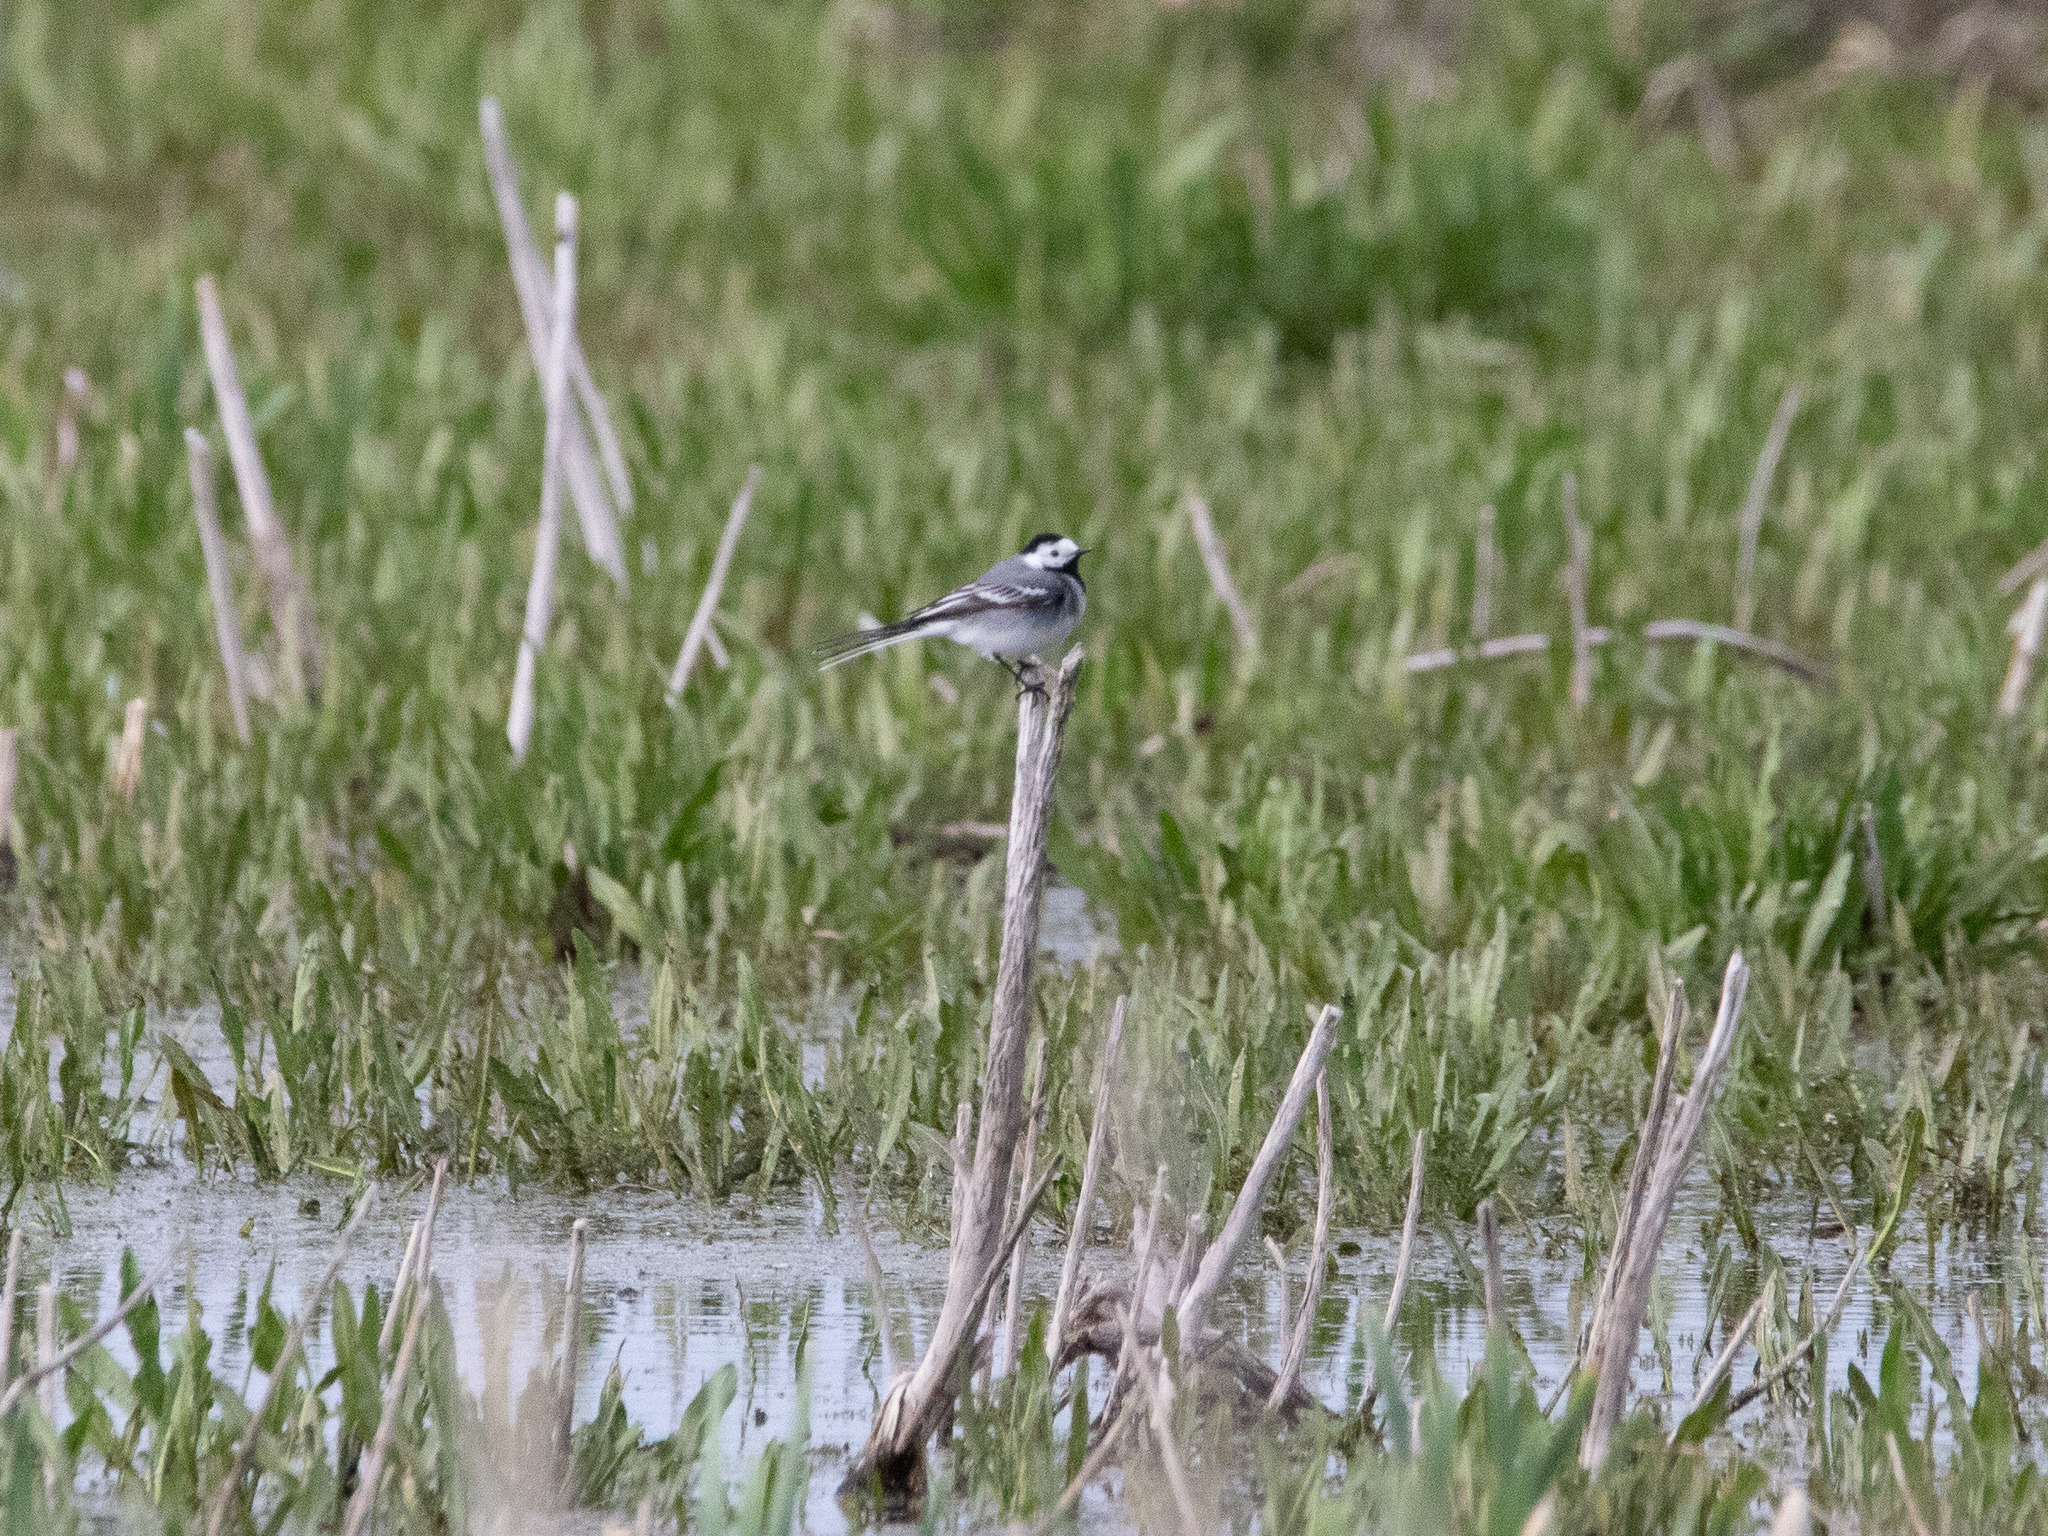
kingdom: Animalia
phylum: Chordata
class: Aves
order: Passeriformes
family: Motacillidae
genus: Motacilla
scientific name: Motacilla alba
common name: White wagtail
